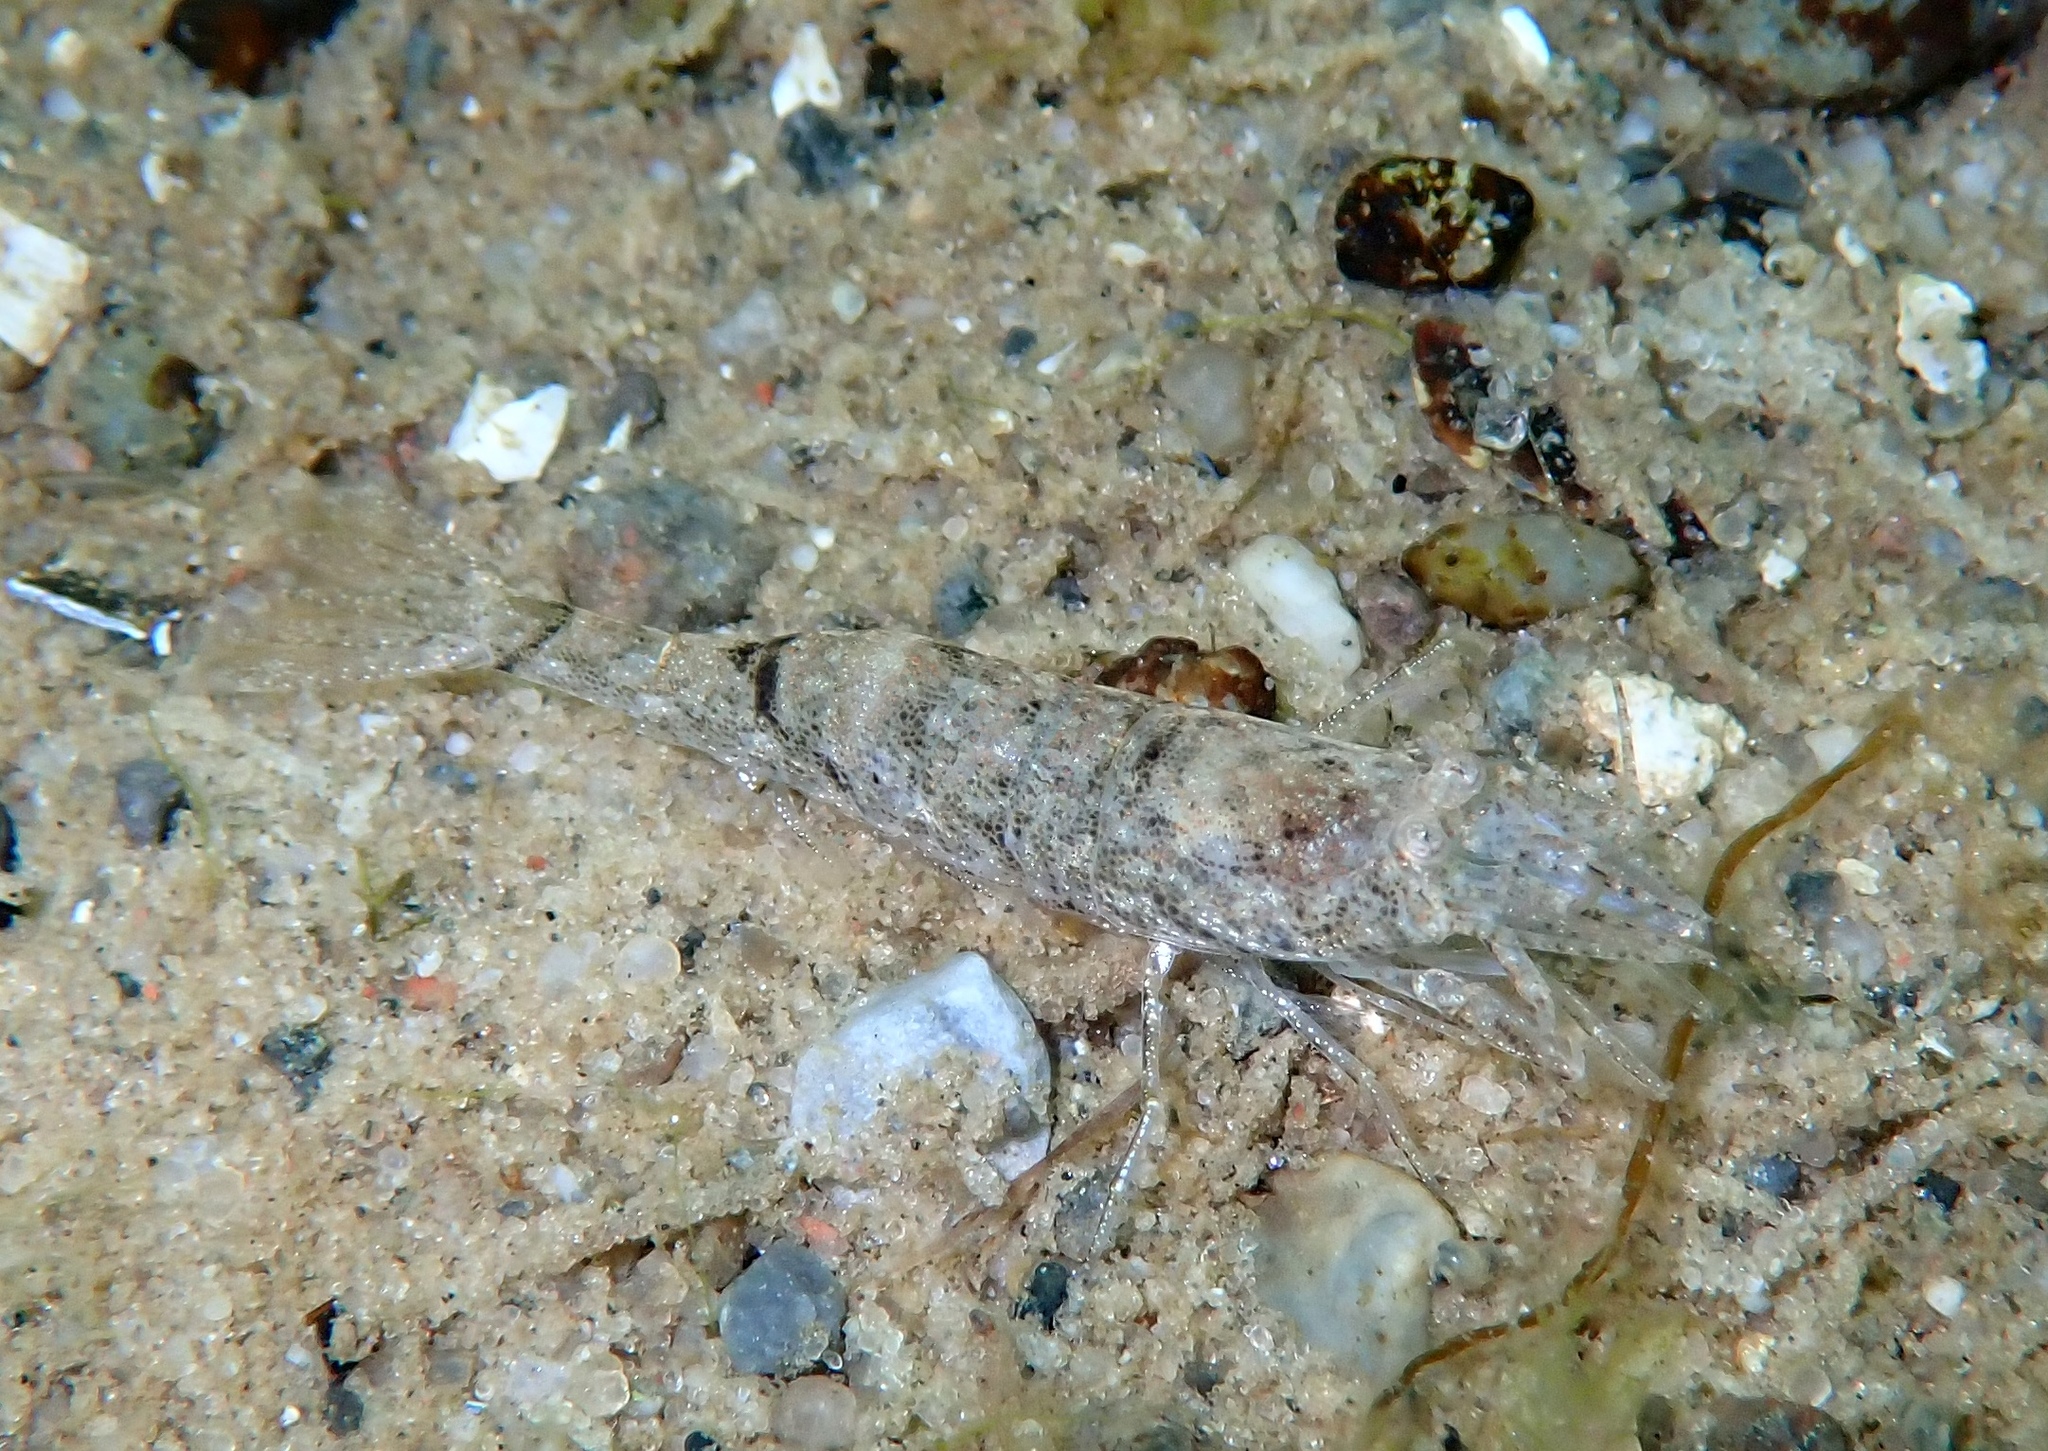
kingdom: Animalia
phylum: Arthropoda
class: Malacostraca
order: Decapoda
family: Crangonidae
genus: Crangon
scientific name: Crangon crangon
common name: Brown shrimp
